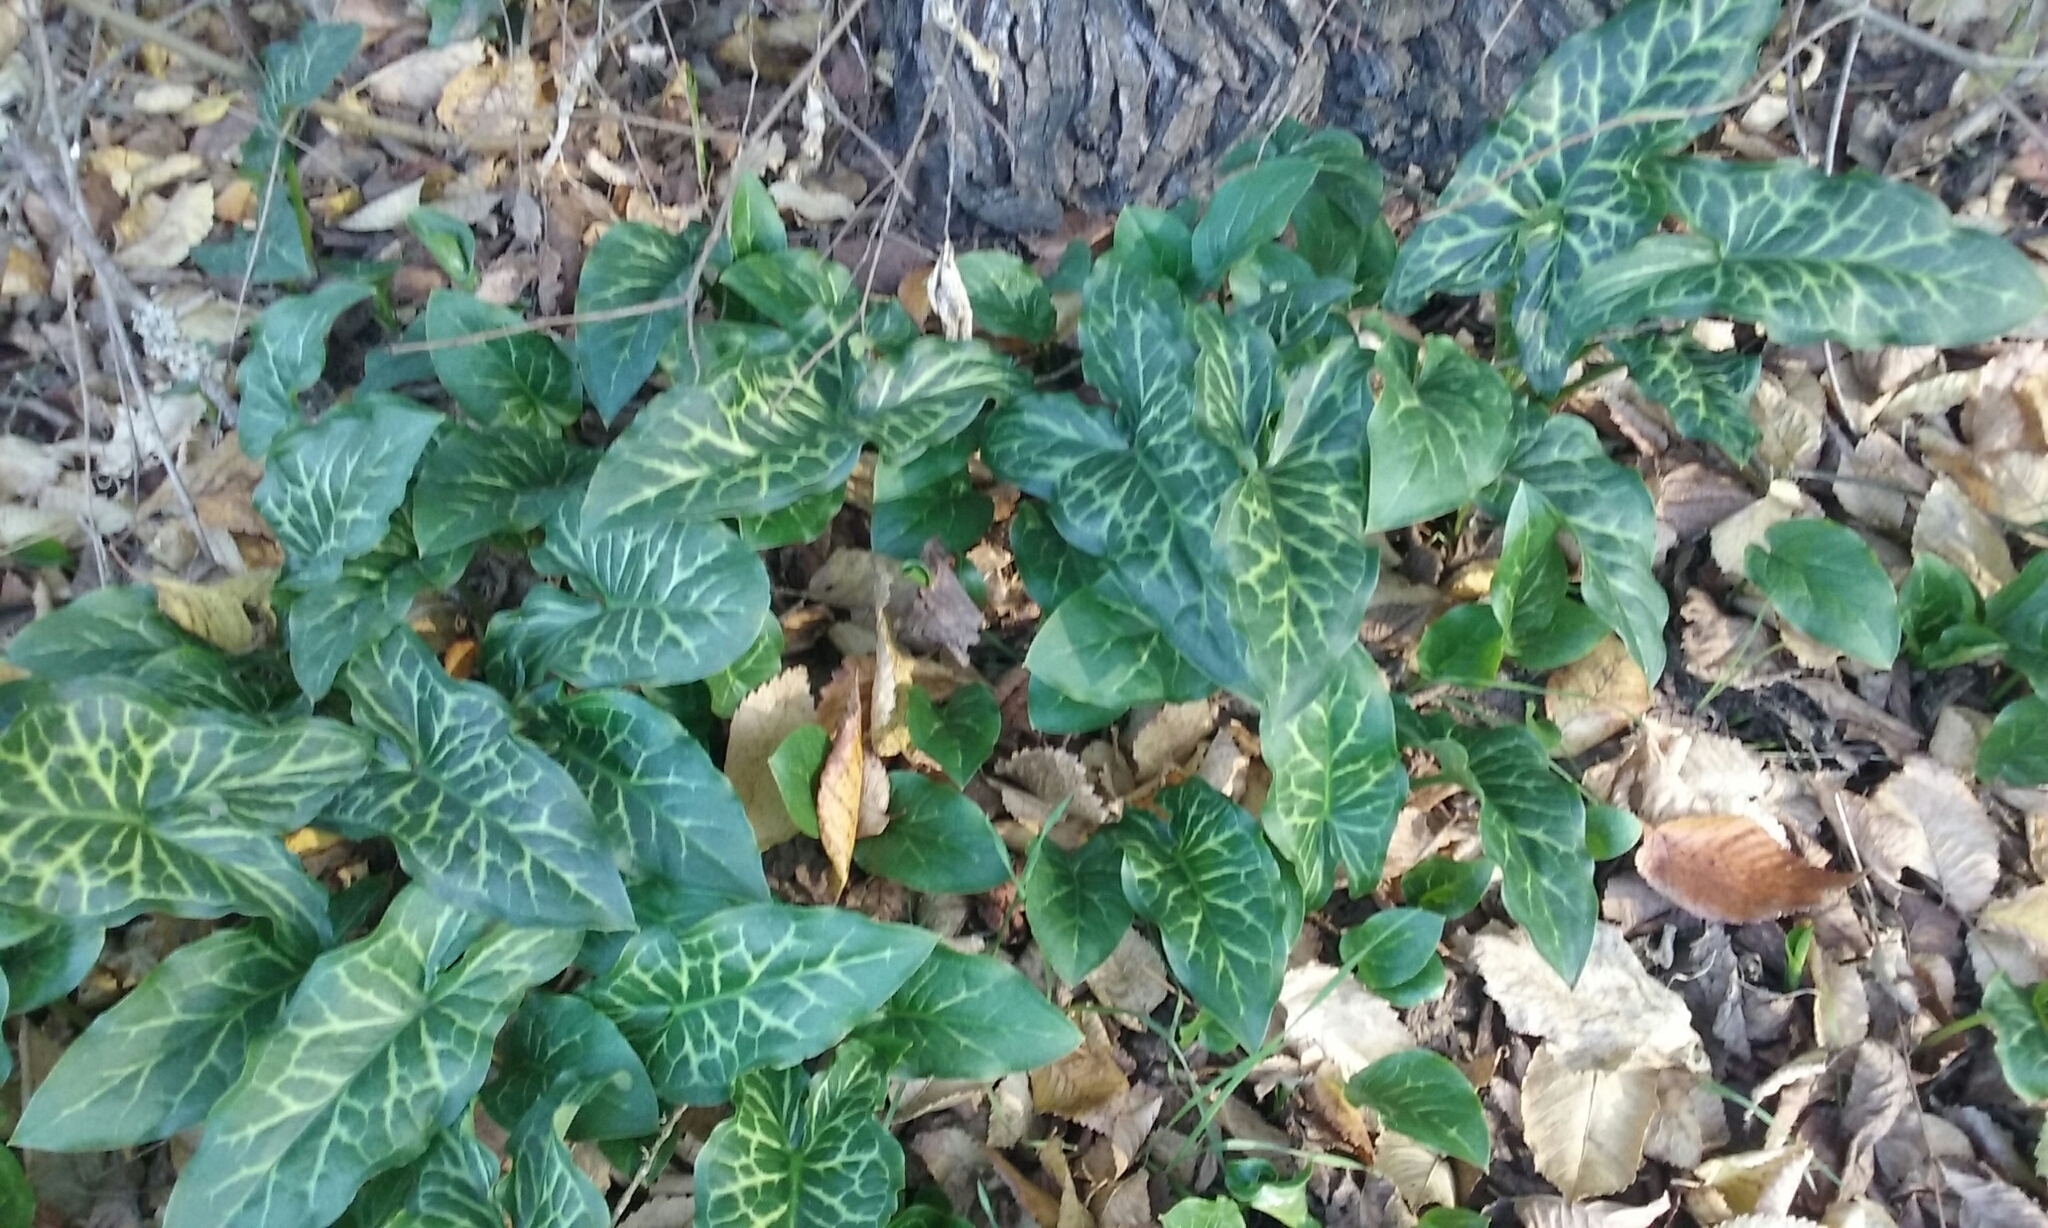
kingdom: Plantae
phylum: Tracheophyta
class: Liliopsida
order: Alismatales
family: Araceae
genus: Arum
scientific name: Arum italicum
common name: Italian lords-and-ladies
